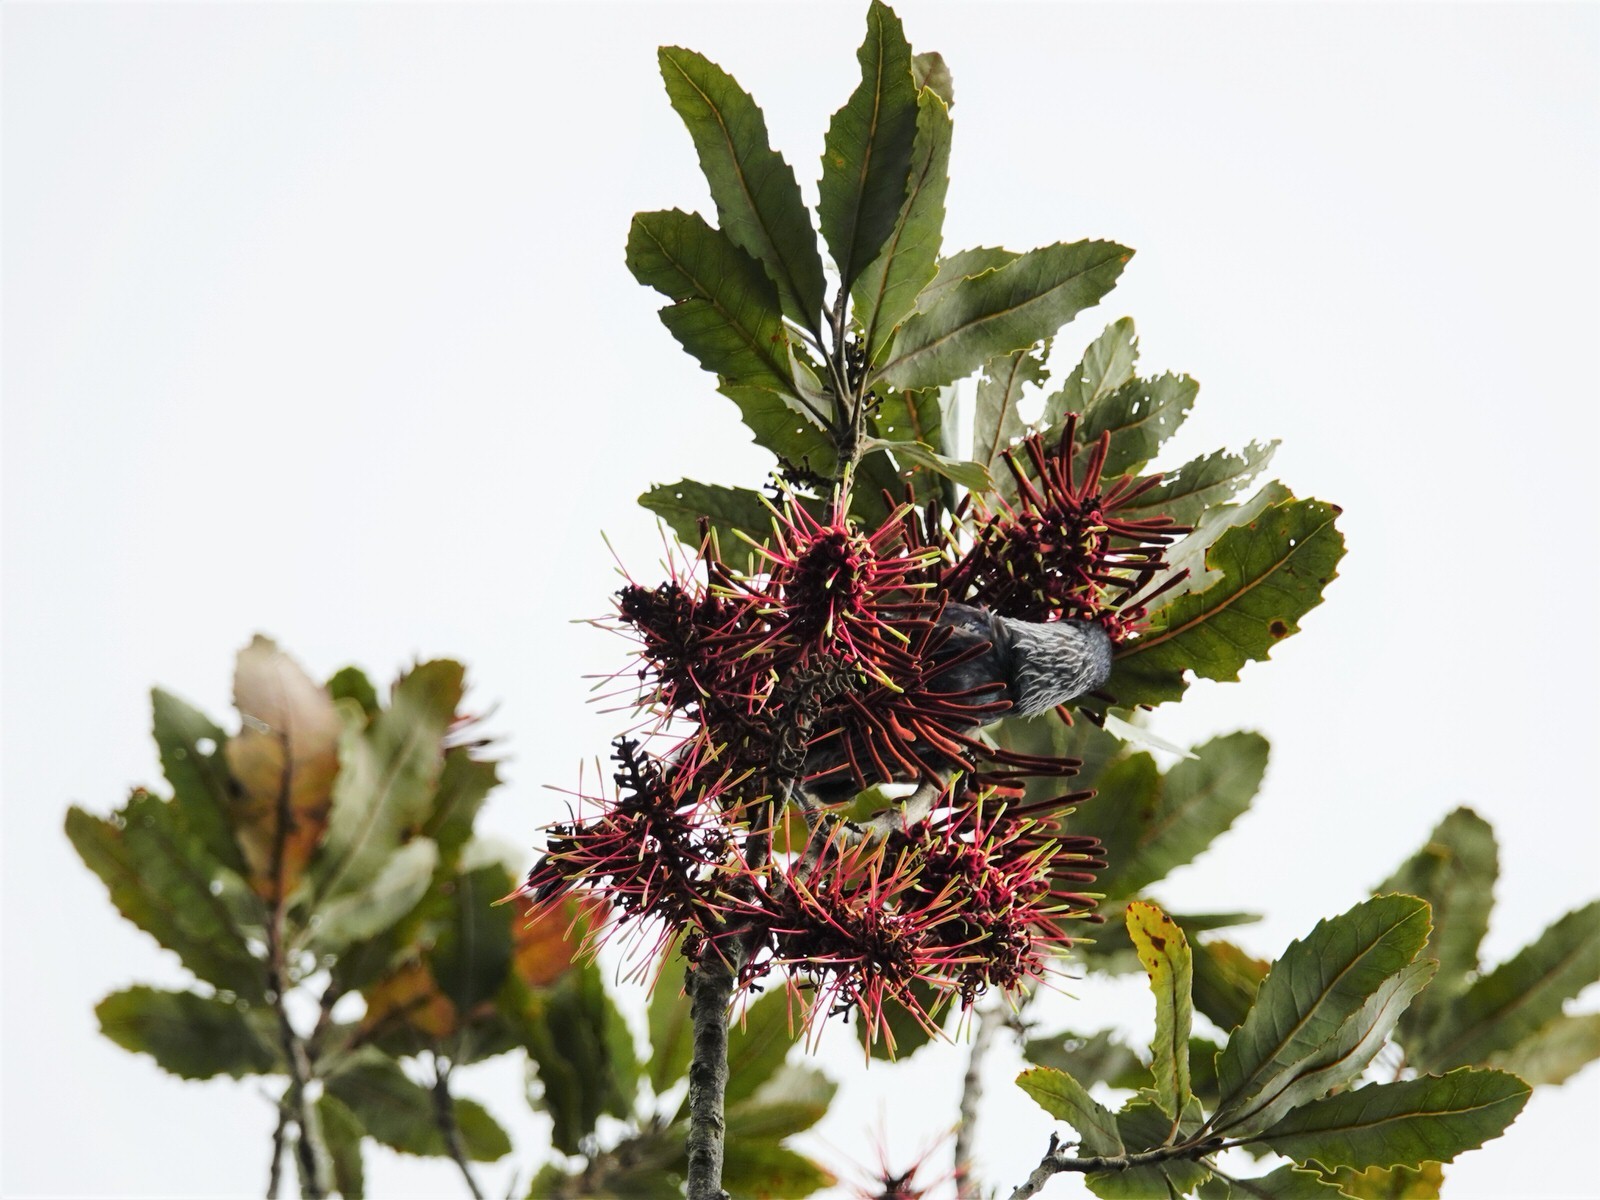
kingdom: Animalia
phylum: Chordata
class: Aves
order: Passeriformes
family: Meliphagidae
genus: Prosthemadera
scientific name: Prosthemadera novaeseelandiae
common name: Tui
